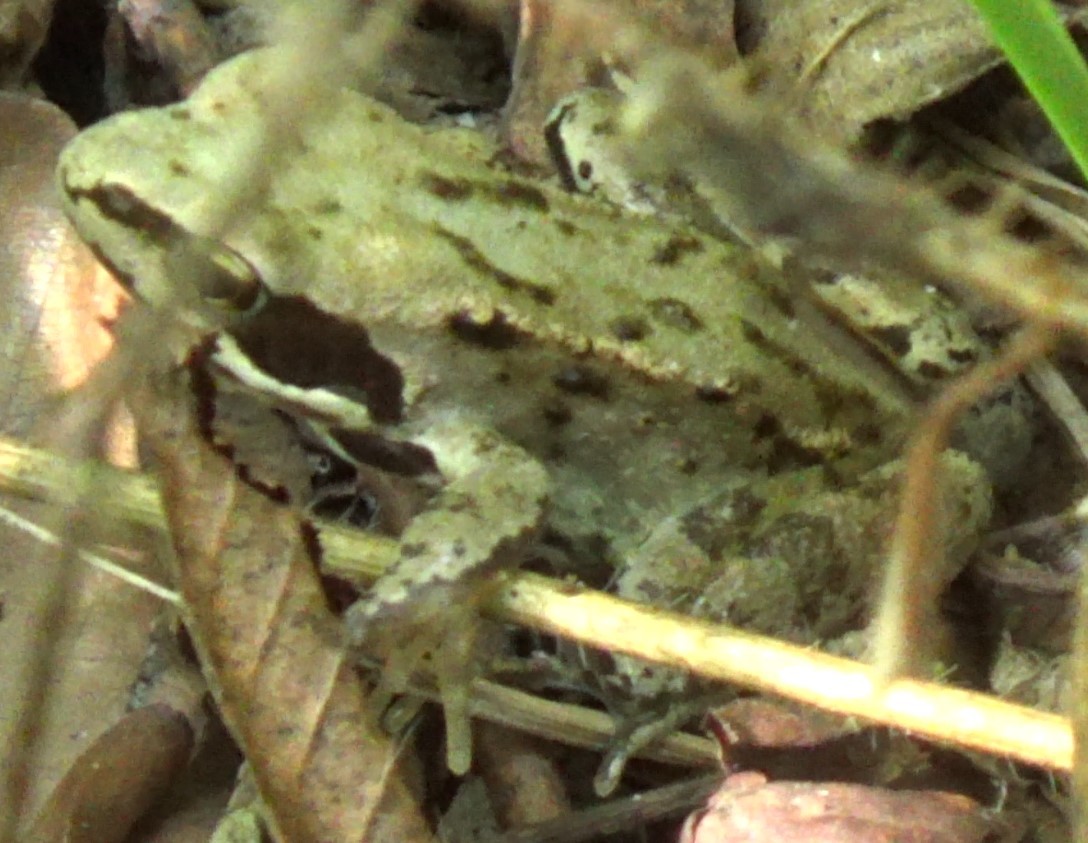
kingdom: Animalia
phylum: Chordata
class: Amphibia
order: Anura
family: Ranidae
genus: Rana
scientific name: Rana temporaria
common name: Common frog
